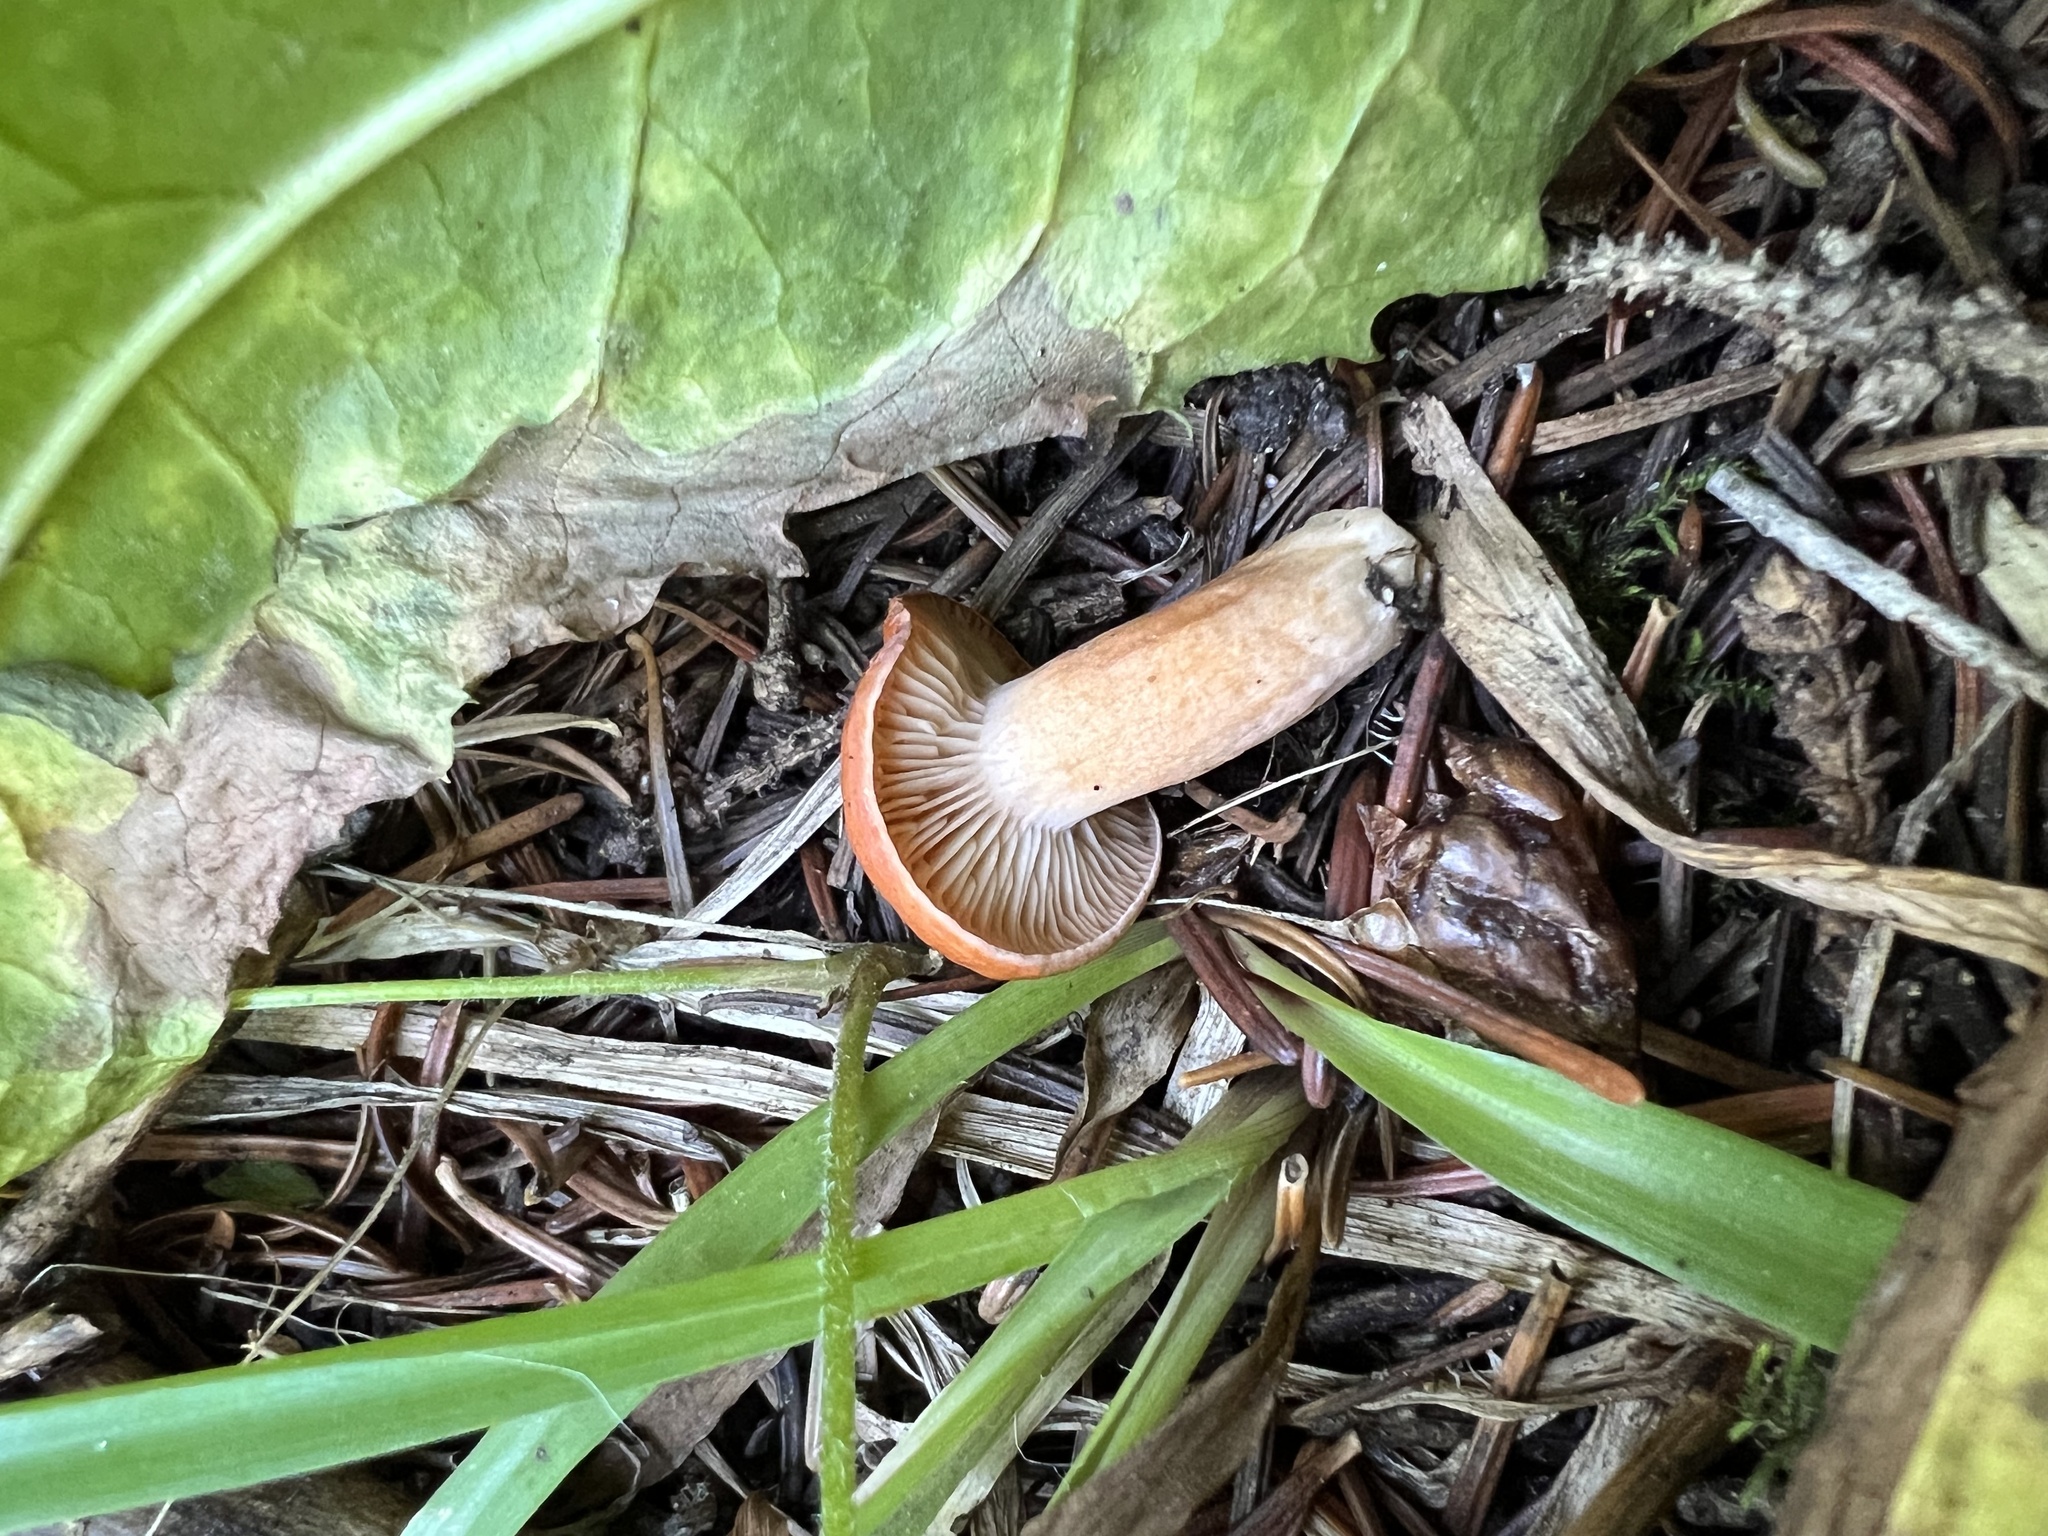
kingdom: Fungi
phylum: Basidiomycota
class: Agaricomycetes
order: Russulales
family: Russulaceae
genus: Lactarius
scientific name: Lactarius rufus
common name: Rufous milk-cap
